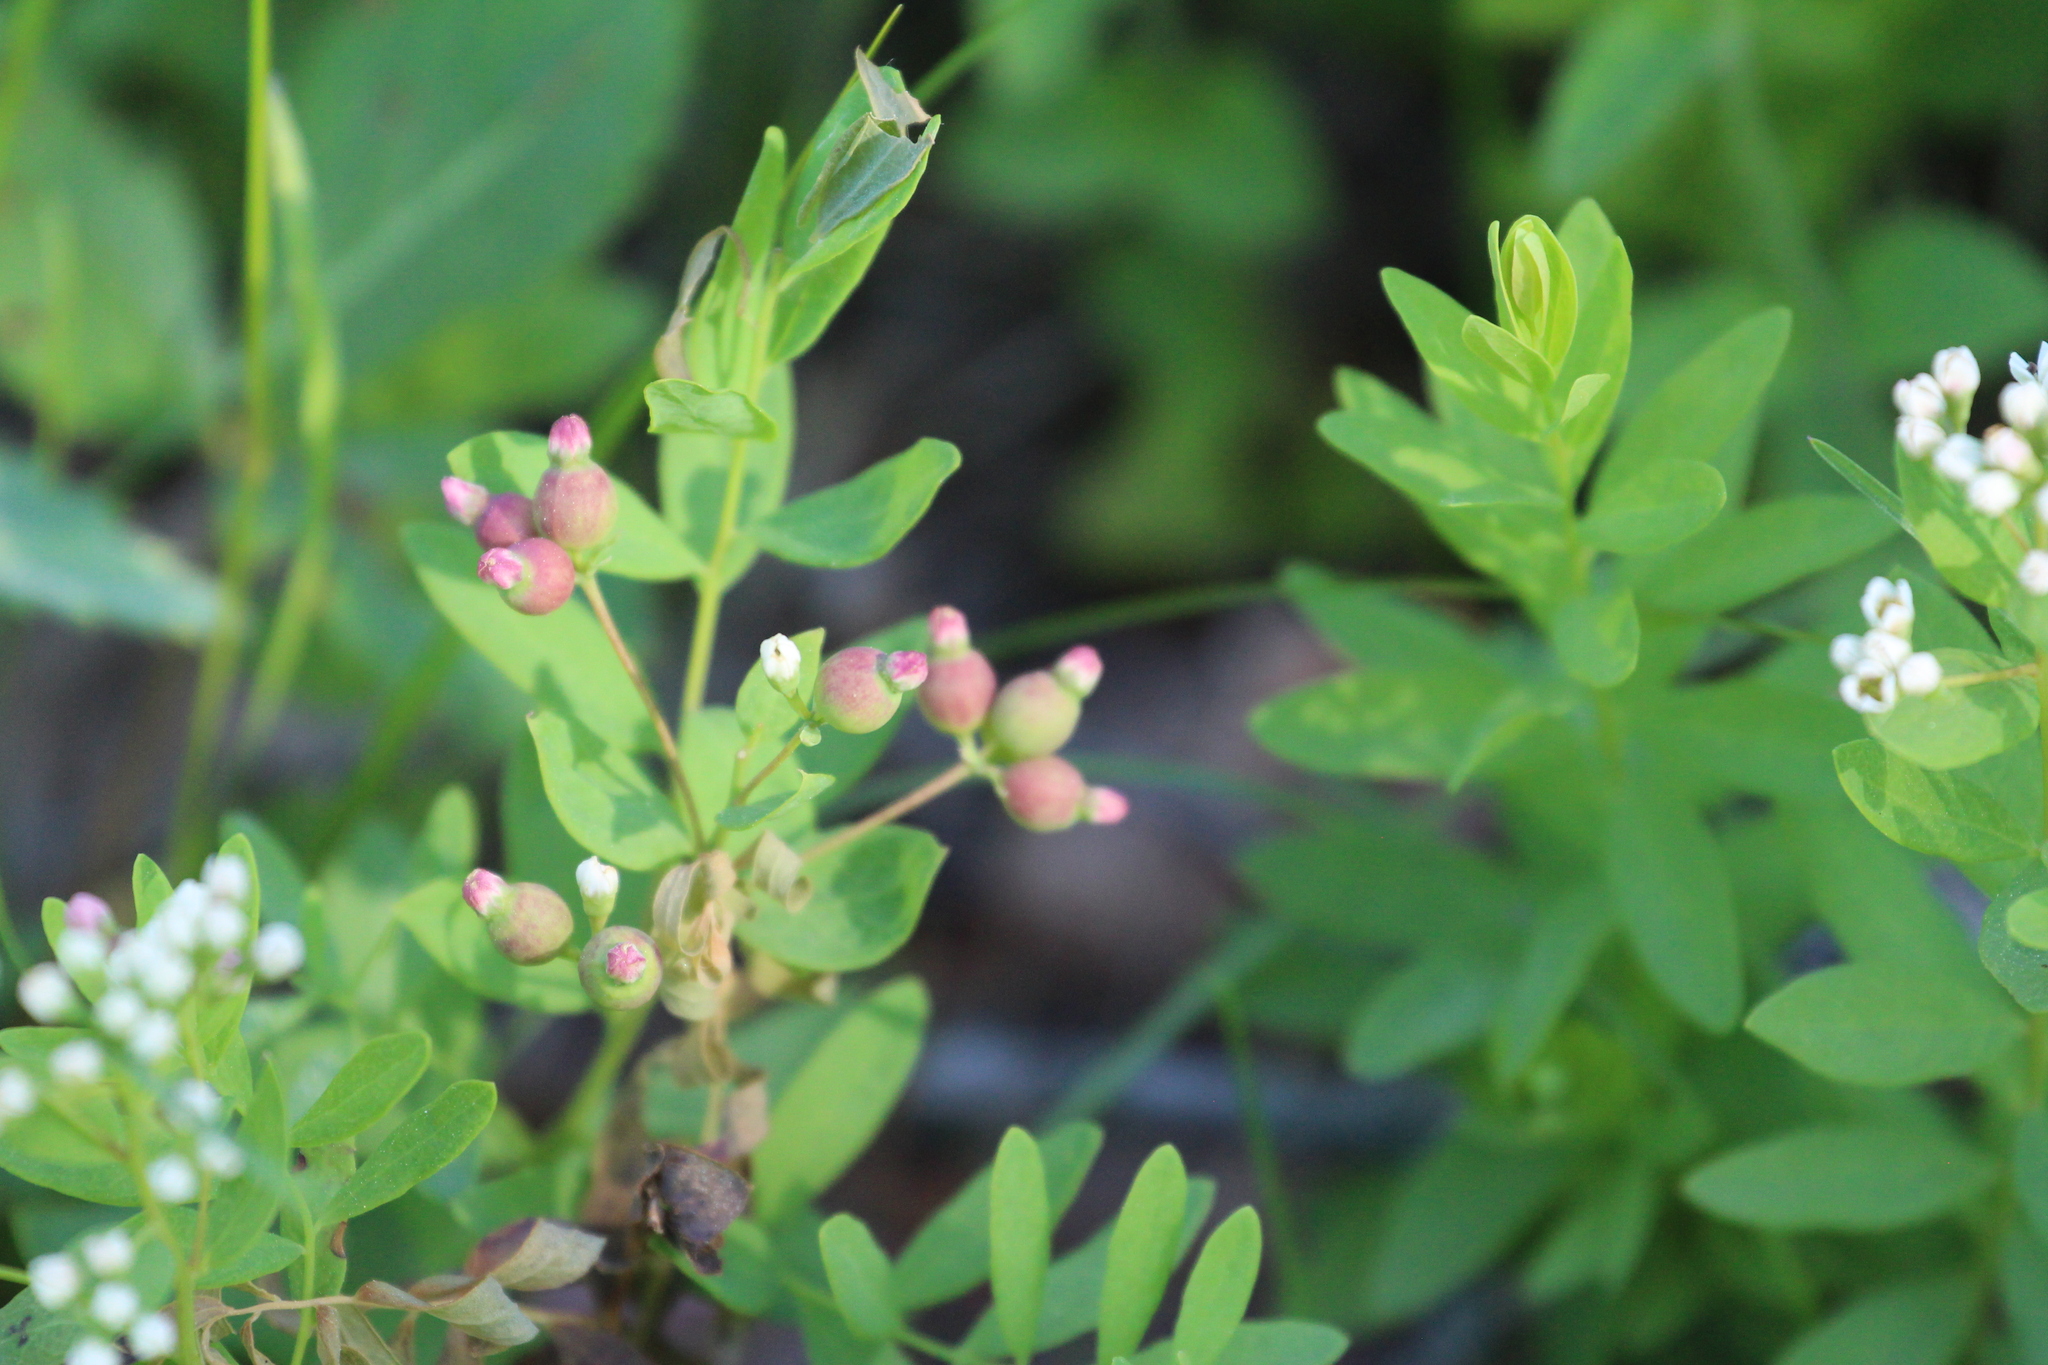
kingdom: Plantae
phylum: Tracheophyta
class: Magnoliopsida
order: Santalales
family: Comandraceae
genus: Comandra
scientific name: Comandra umbellata
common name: Bastard toadflax
